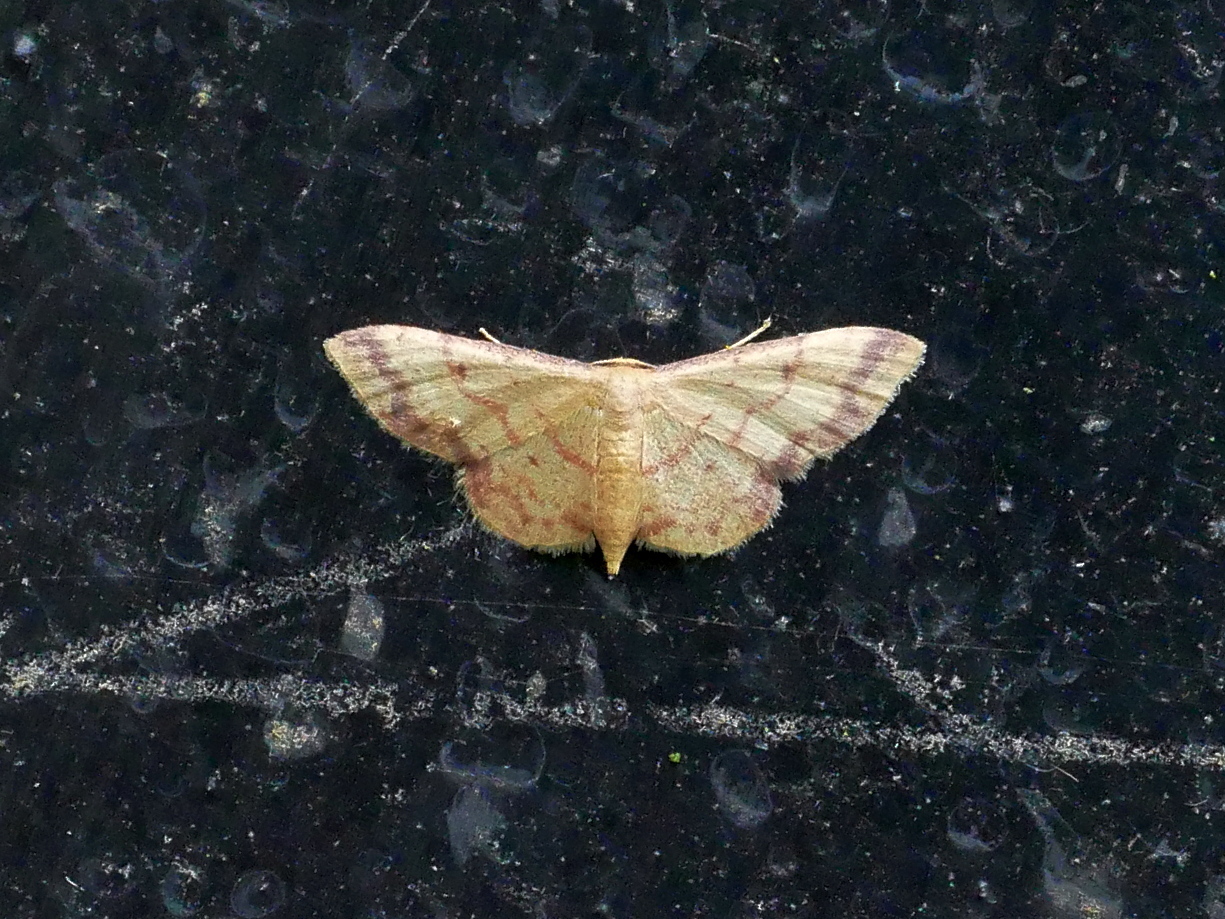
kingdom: Animalia
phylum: Arthropoda
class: Insecta
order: Lepidoptera
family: Geometridae
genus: Idaea
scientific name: Idaea paraula
